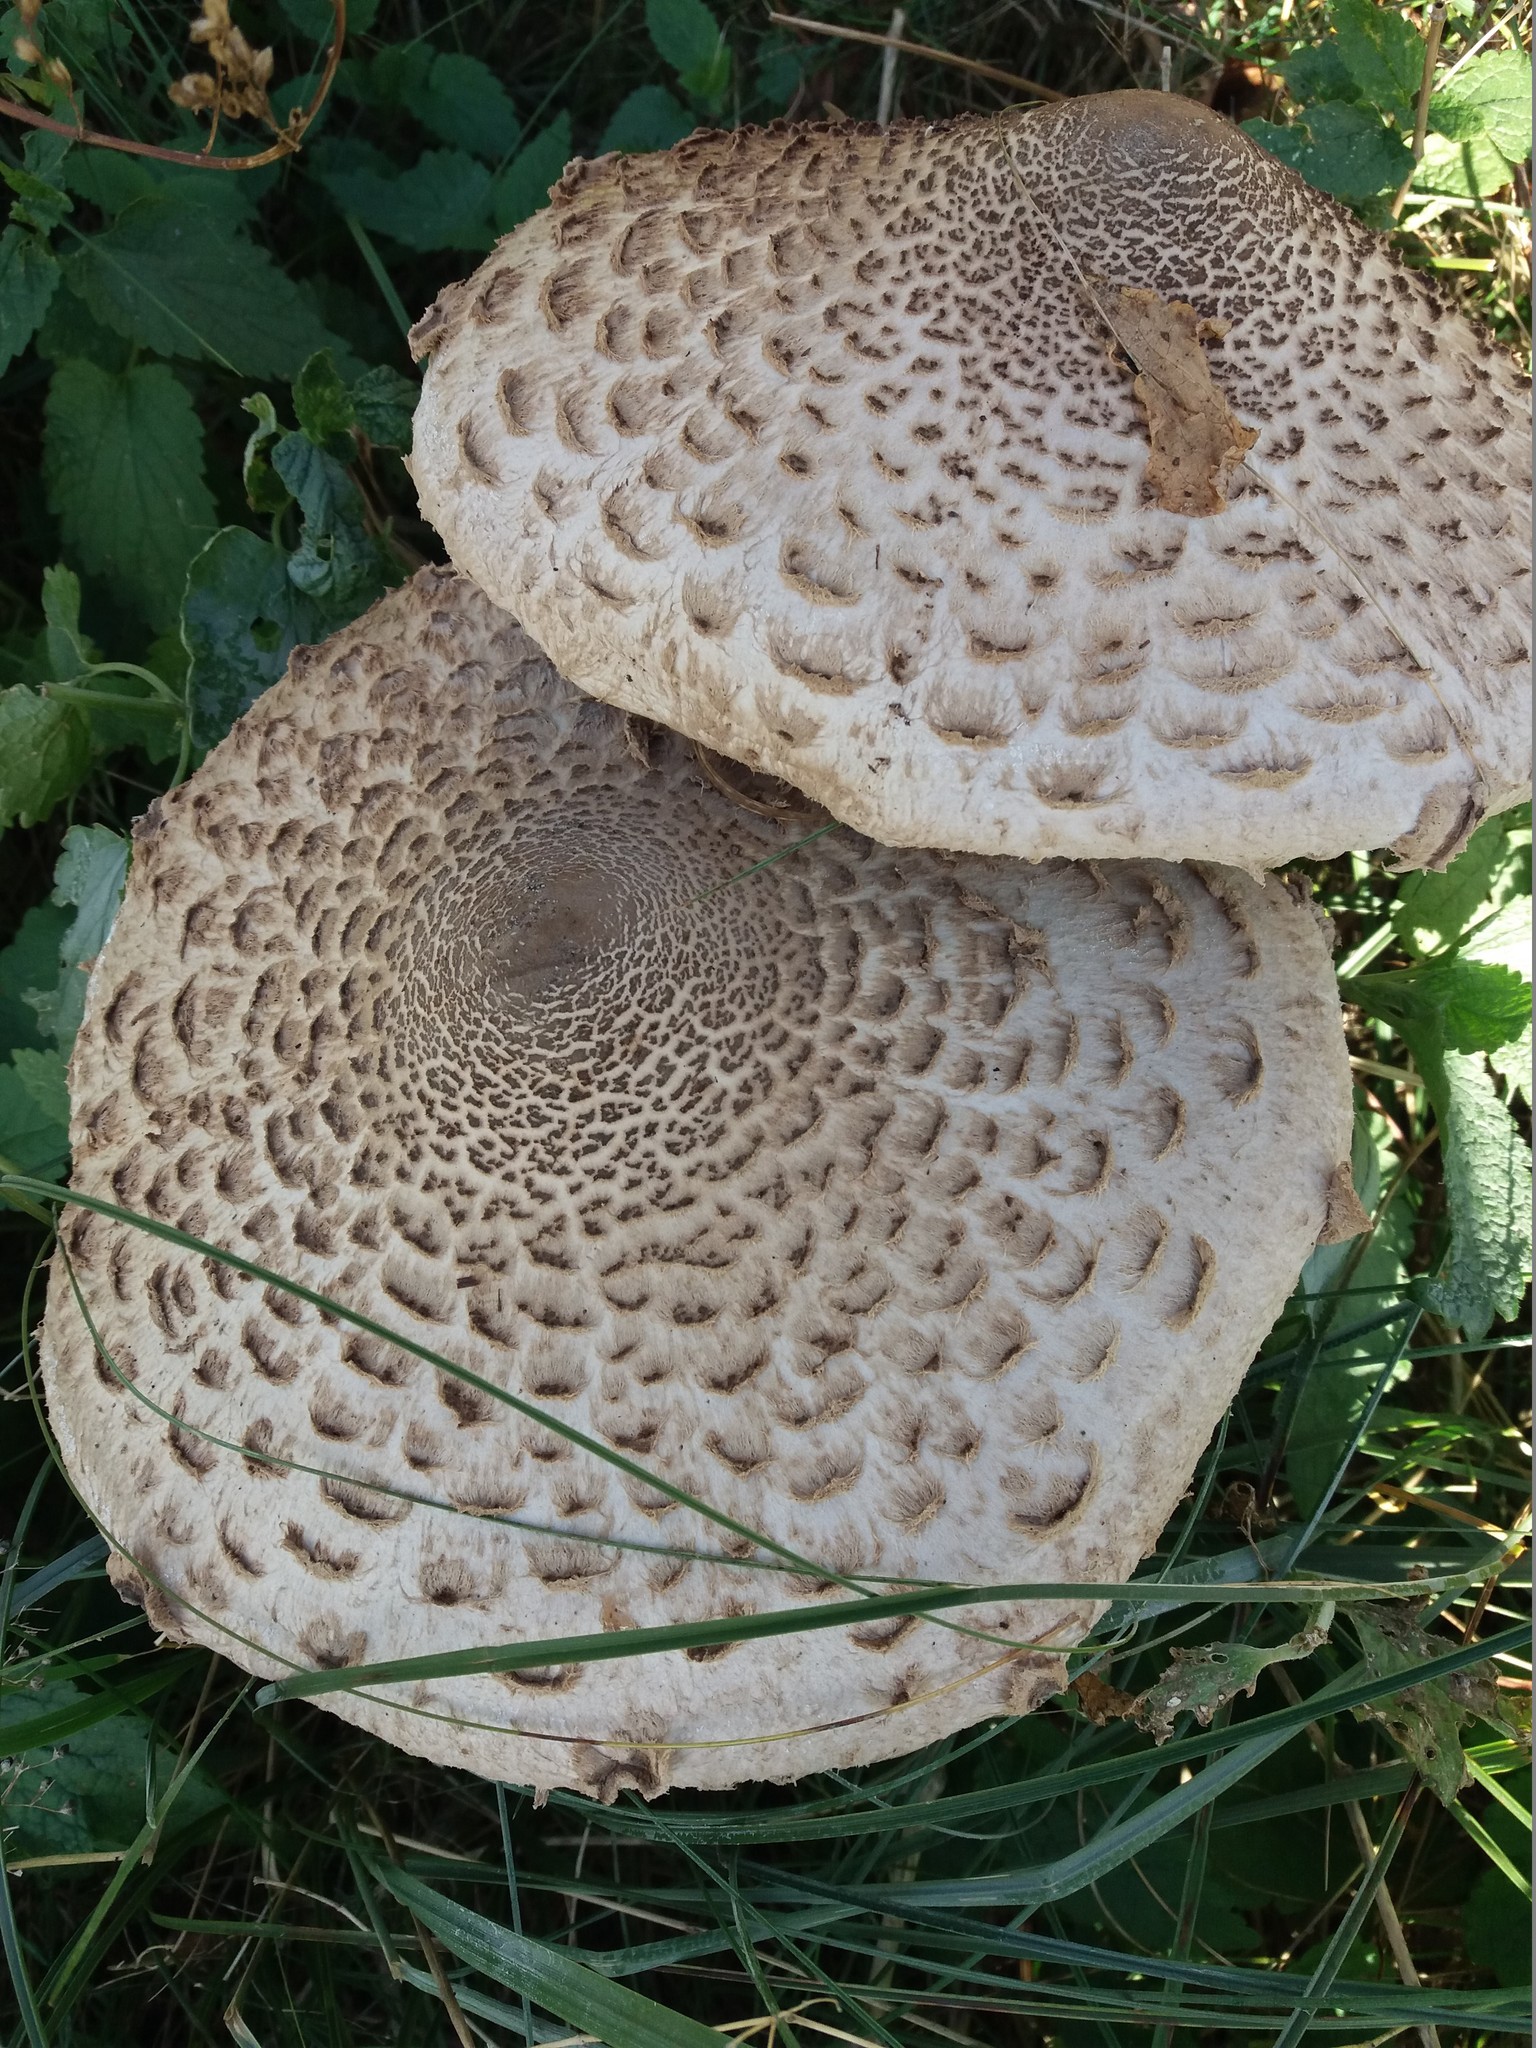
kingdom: Fungi
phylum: Basidiomycota
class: Agaricomycetes
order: Agaricales
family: Agaricaceae
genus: Macrolepiota
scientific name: Macrolepiota procera
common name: Parasol
